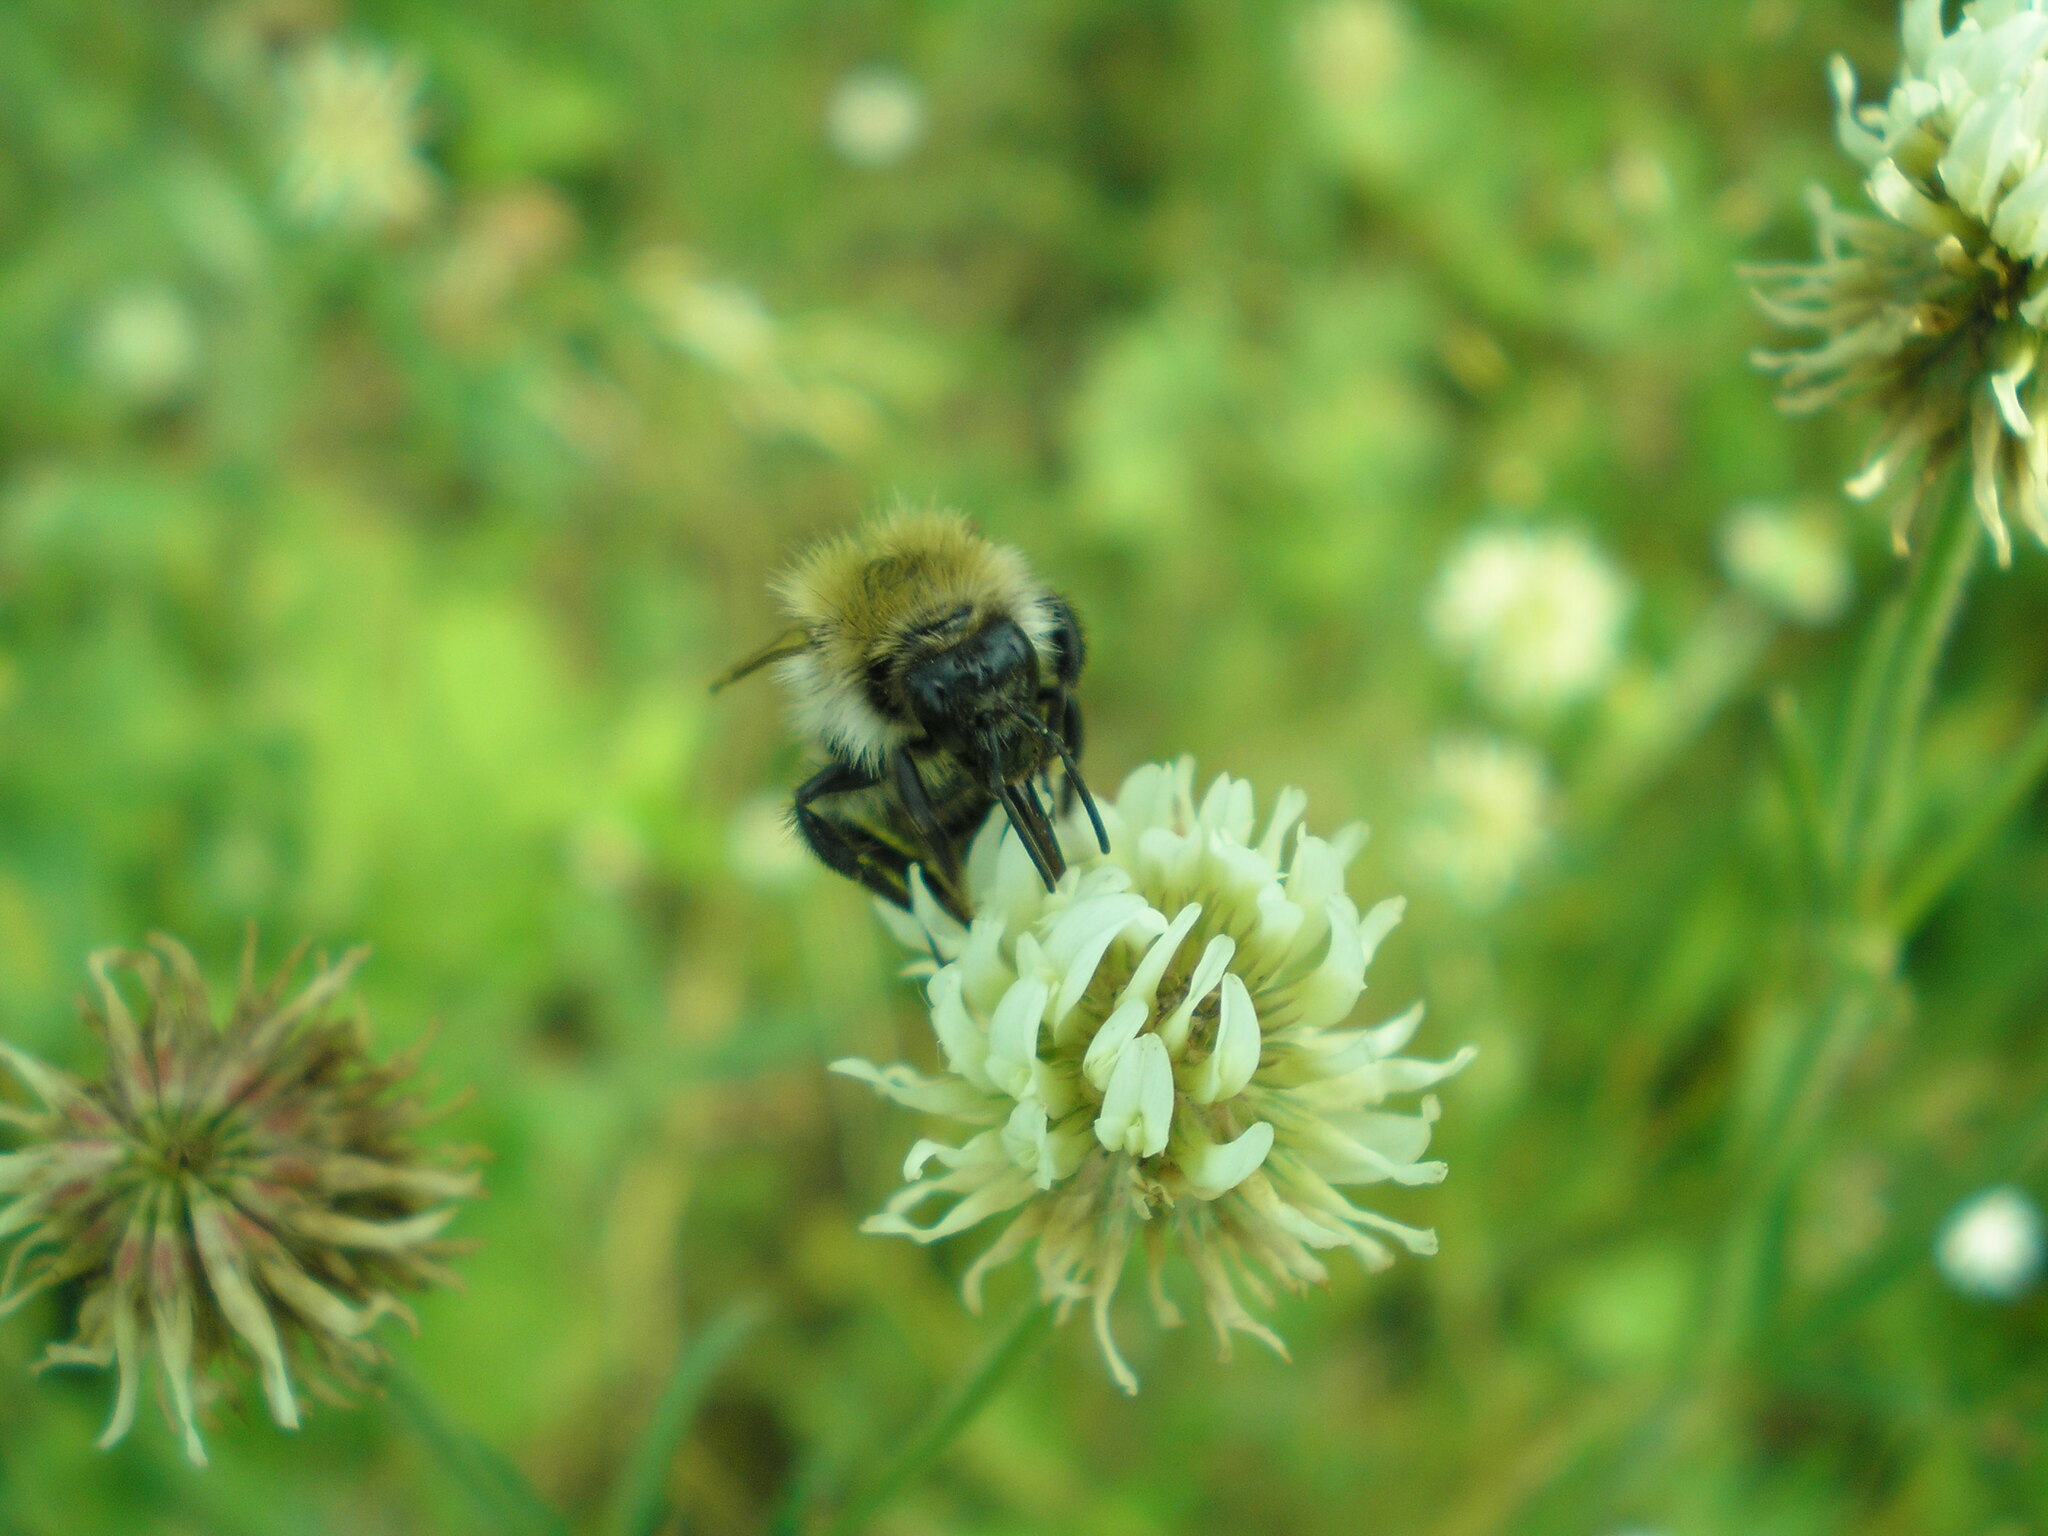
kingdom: Animalia
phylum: Arthropoda
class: Insecta
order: Hymenoptera
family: Apidae
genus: Bombus
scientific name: Bombus pascuorum
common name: Common carder bee
